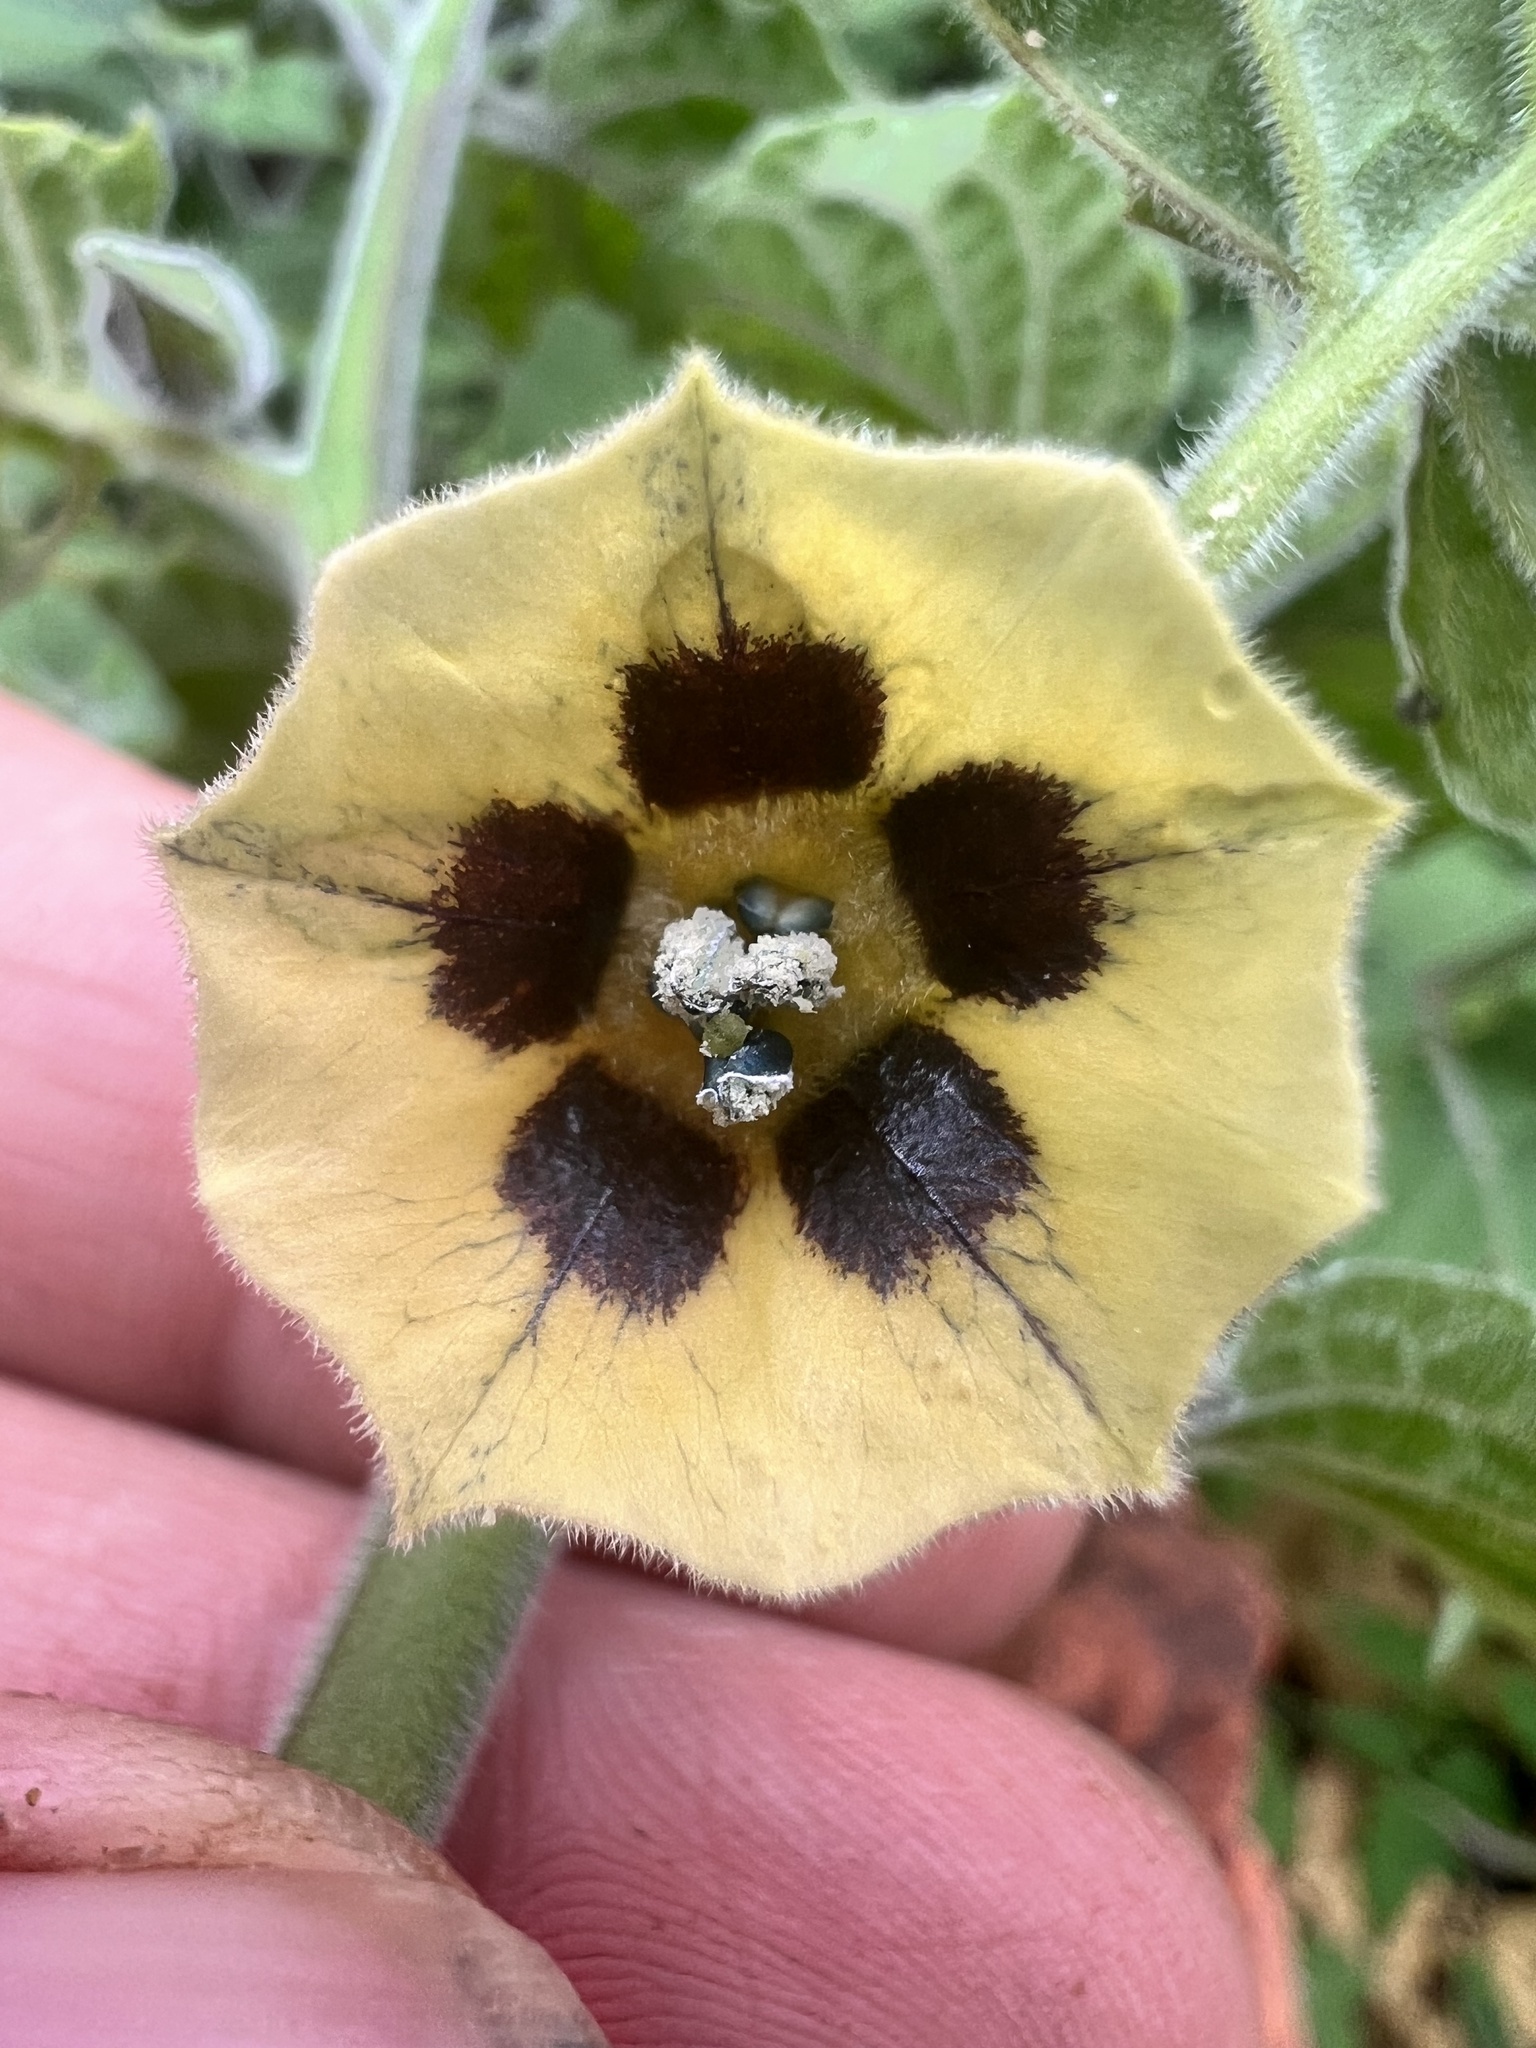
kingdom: Plantae
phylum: Tracheophyta
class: Magnoliopsida
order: Solanales
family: Solanaceae
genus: Physalis
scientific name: Physalis peruviana
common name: Cape-gooseberry
